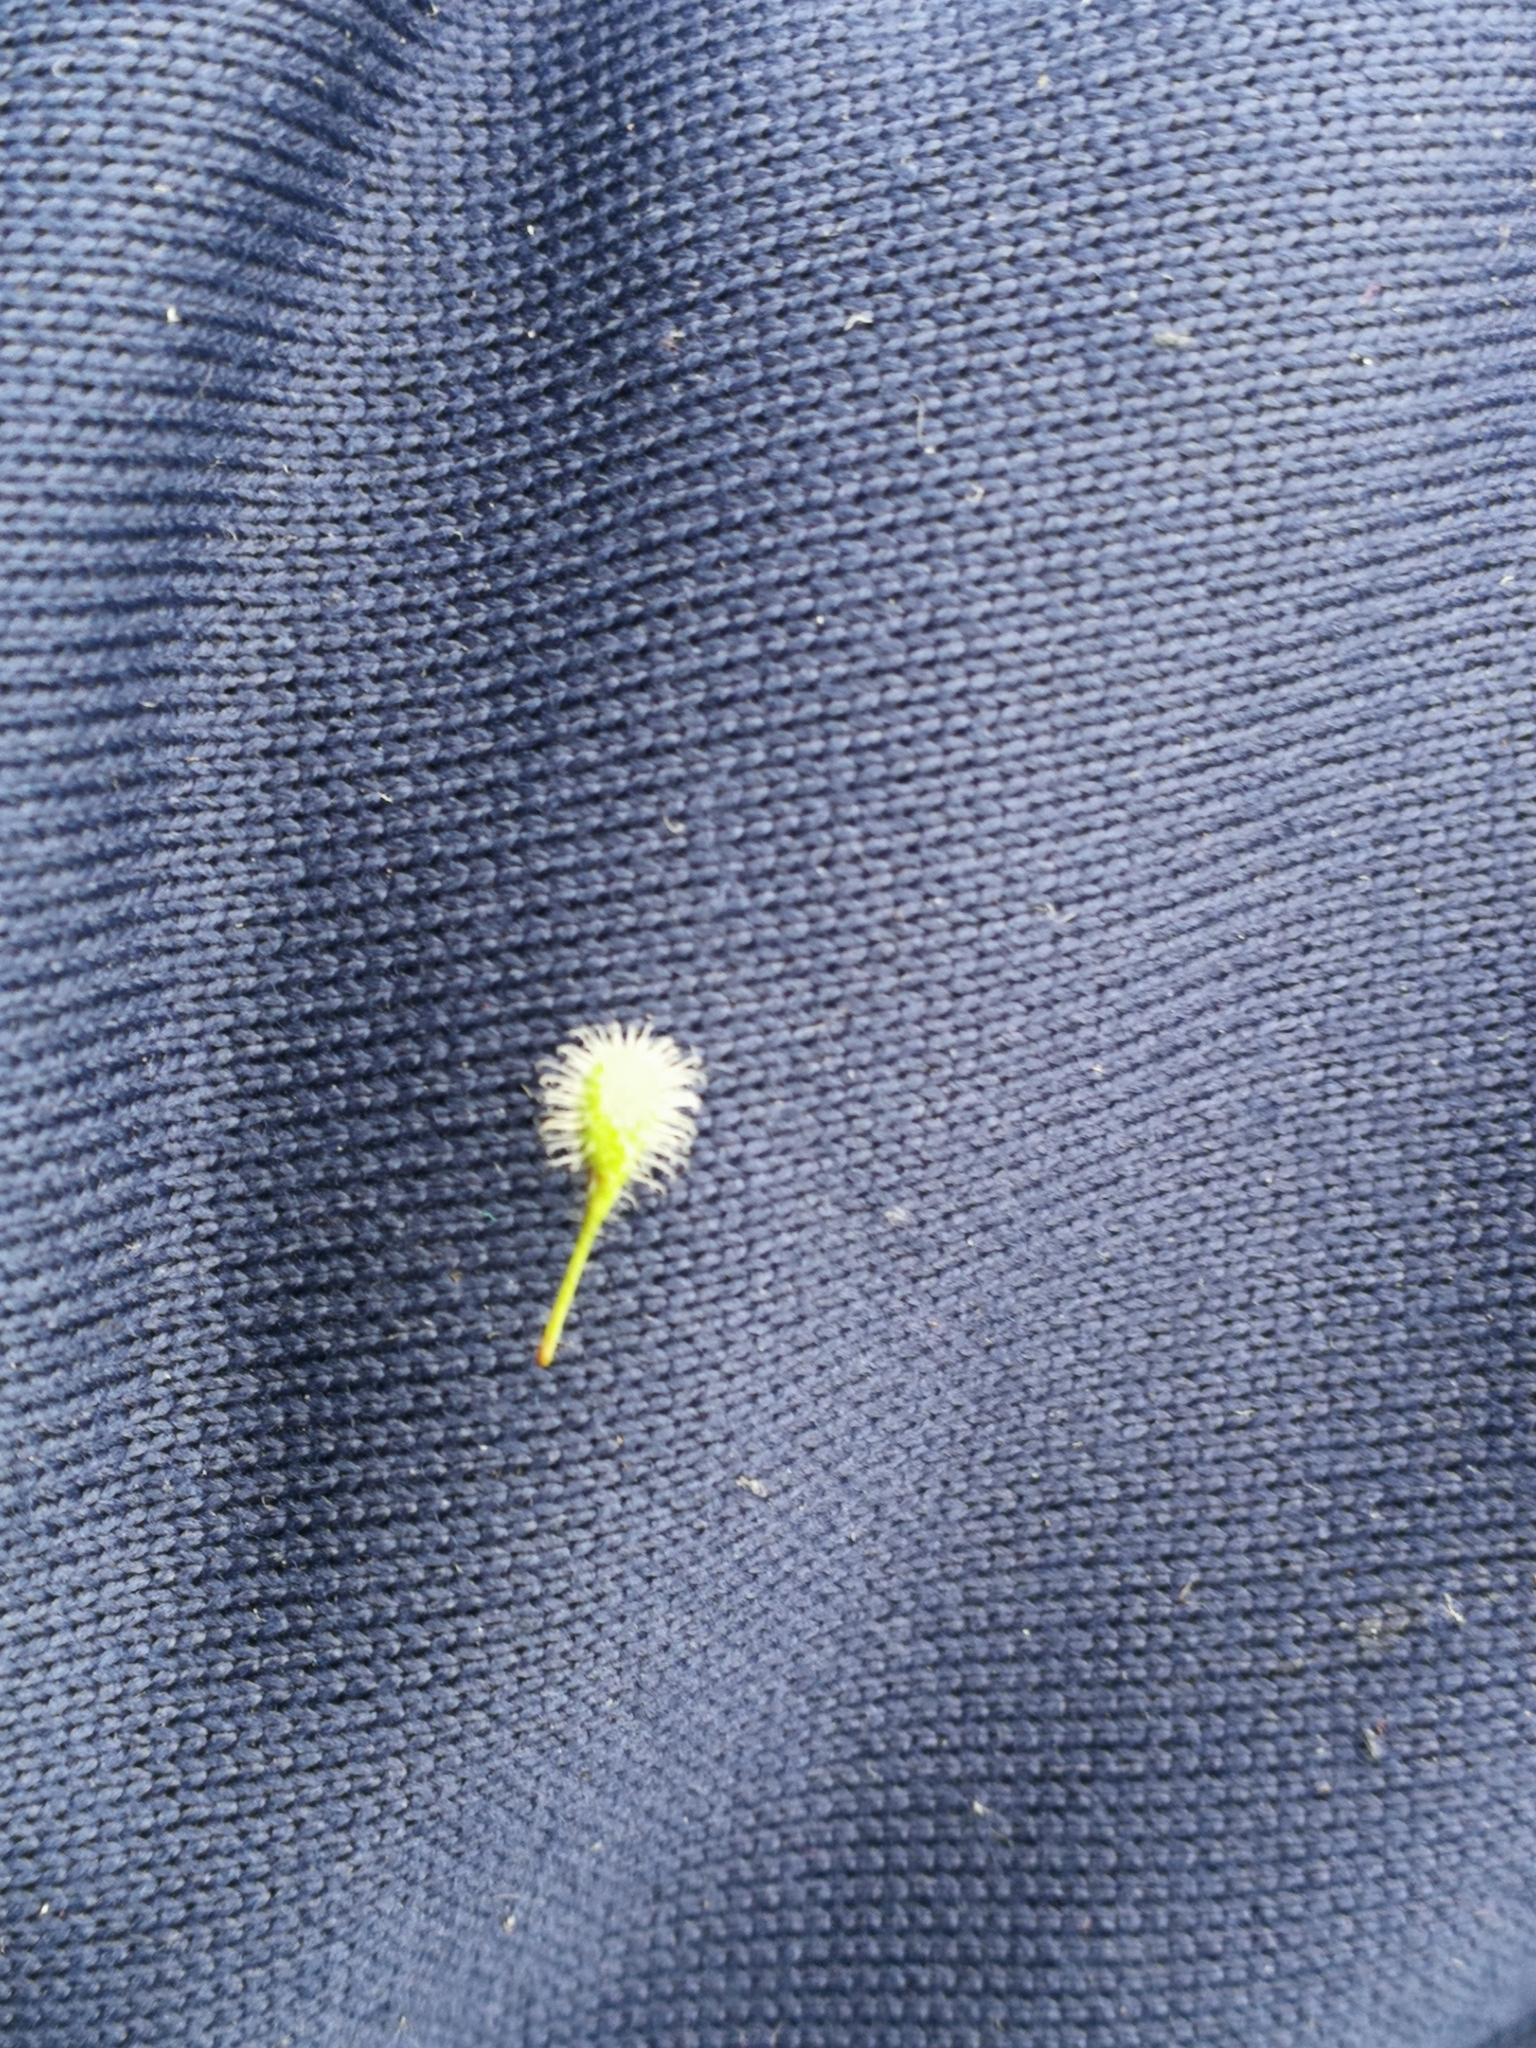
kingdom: Plantae
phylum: Tracheophyta
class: Magnoliopsida
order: Myrtales
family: Onagraceae
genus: Circaea
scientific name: Circaea lutetiana
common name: Enchanter's-nightshade
